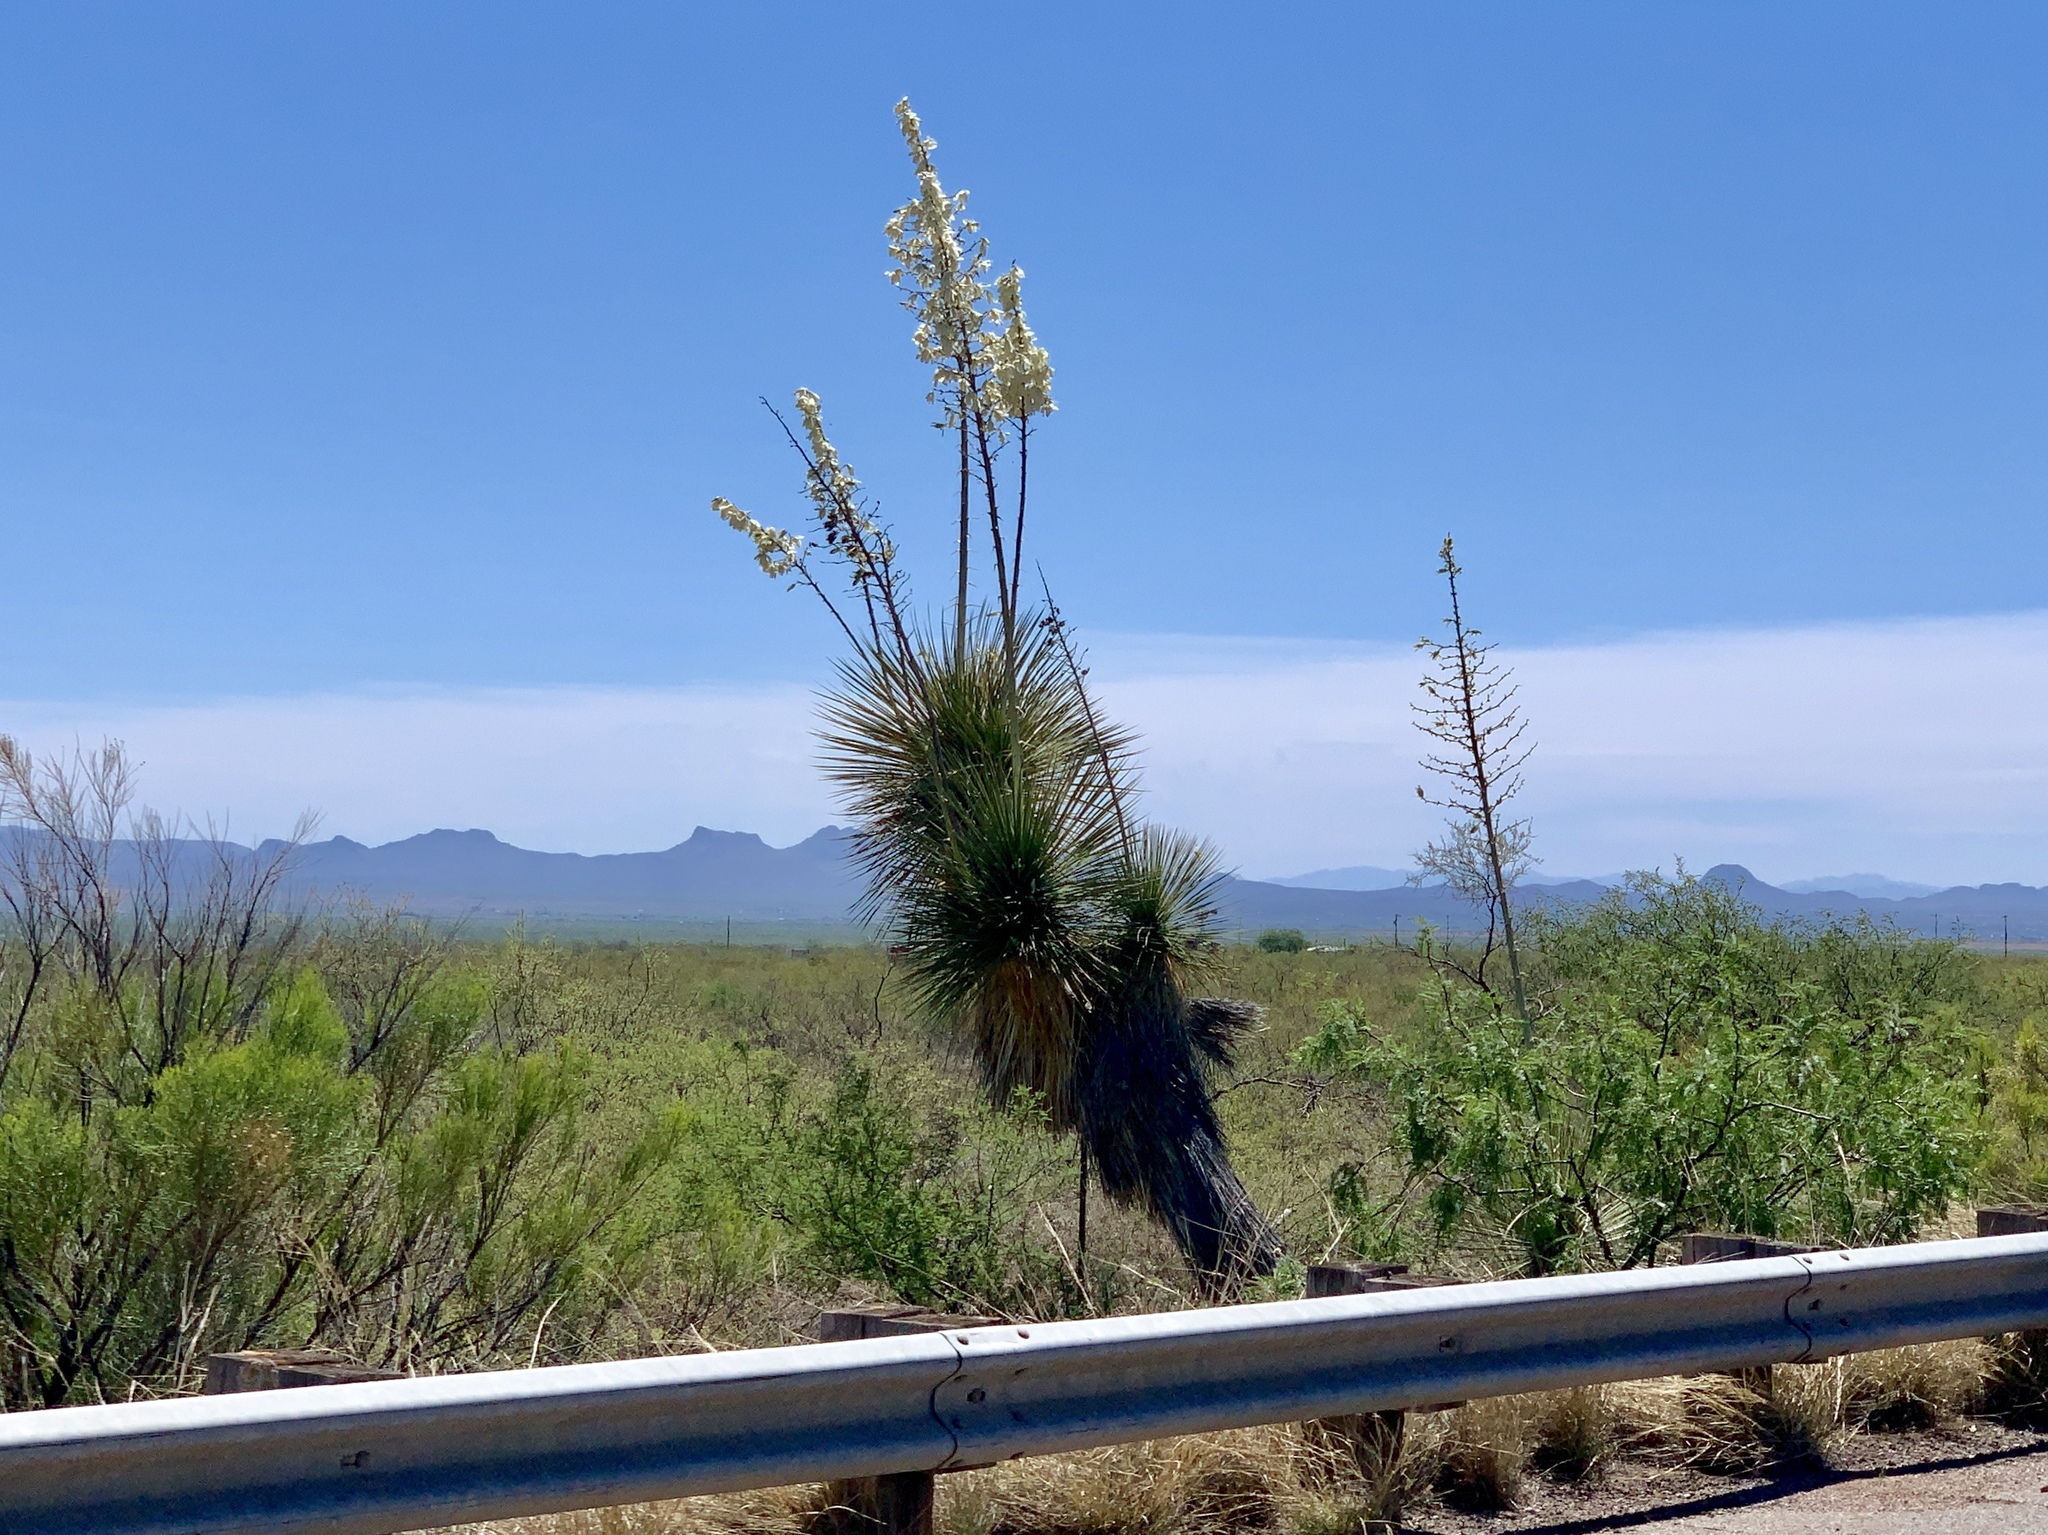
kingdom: Plantae
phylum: Tracheophyta
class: Liliopsida
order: Asparagales
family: Asparagaceae
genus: Yucca
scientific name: Yucca elata
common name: Palmella
